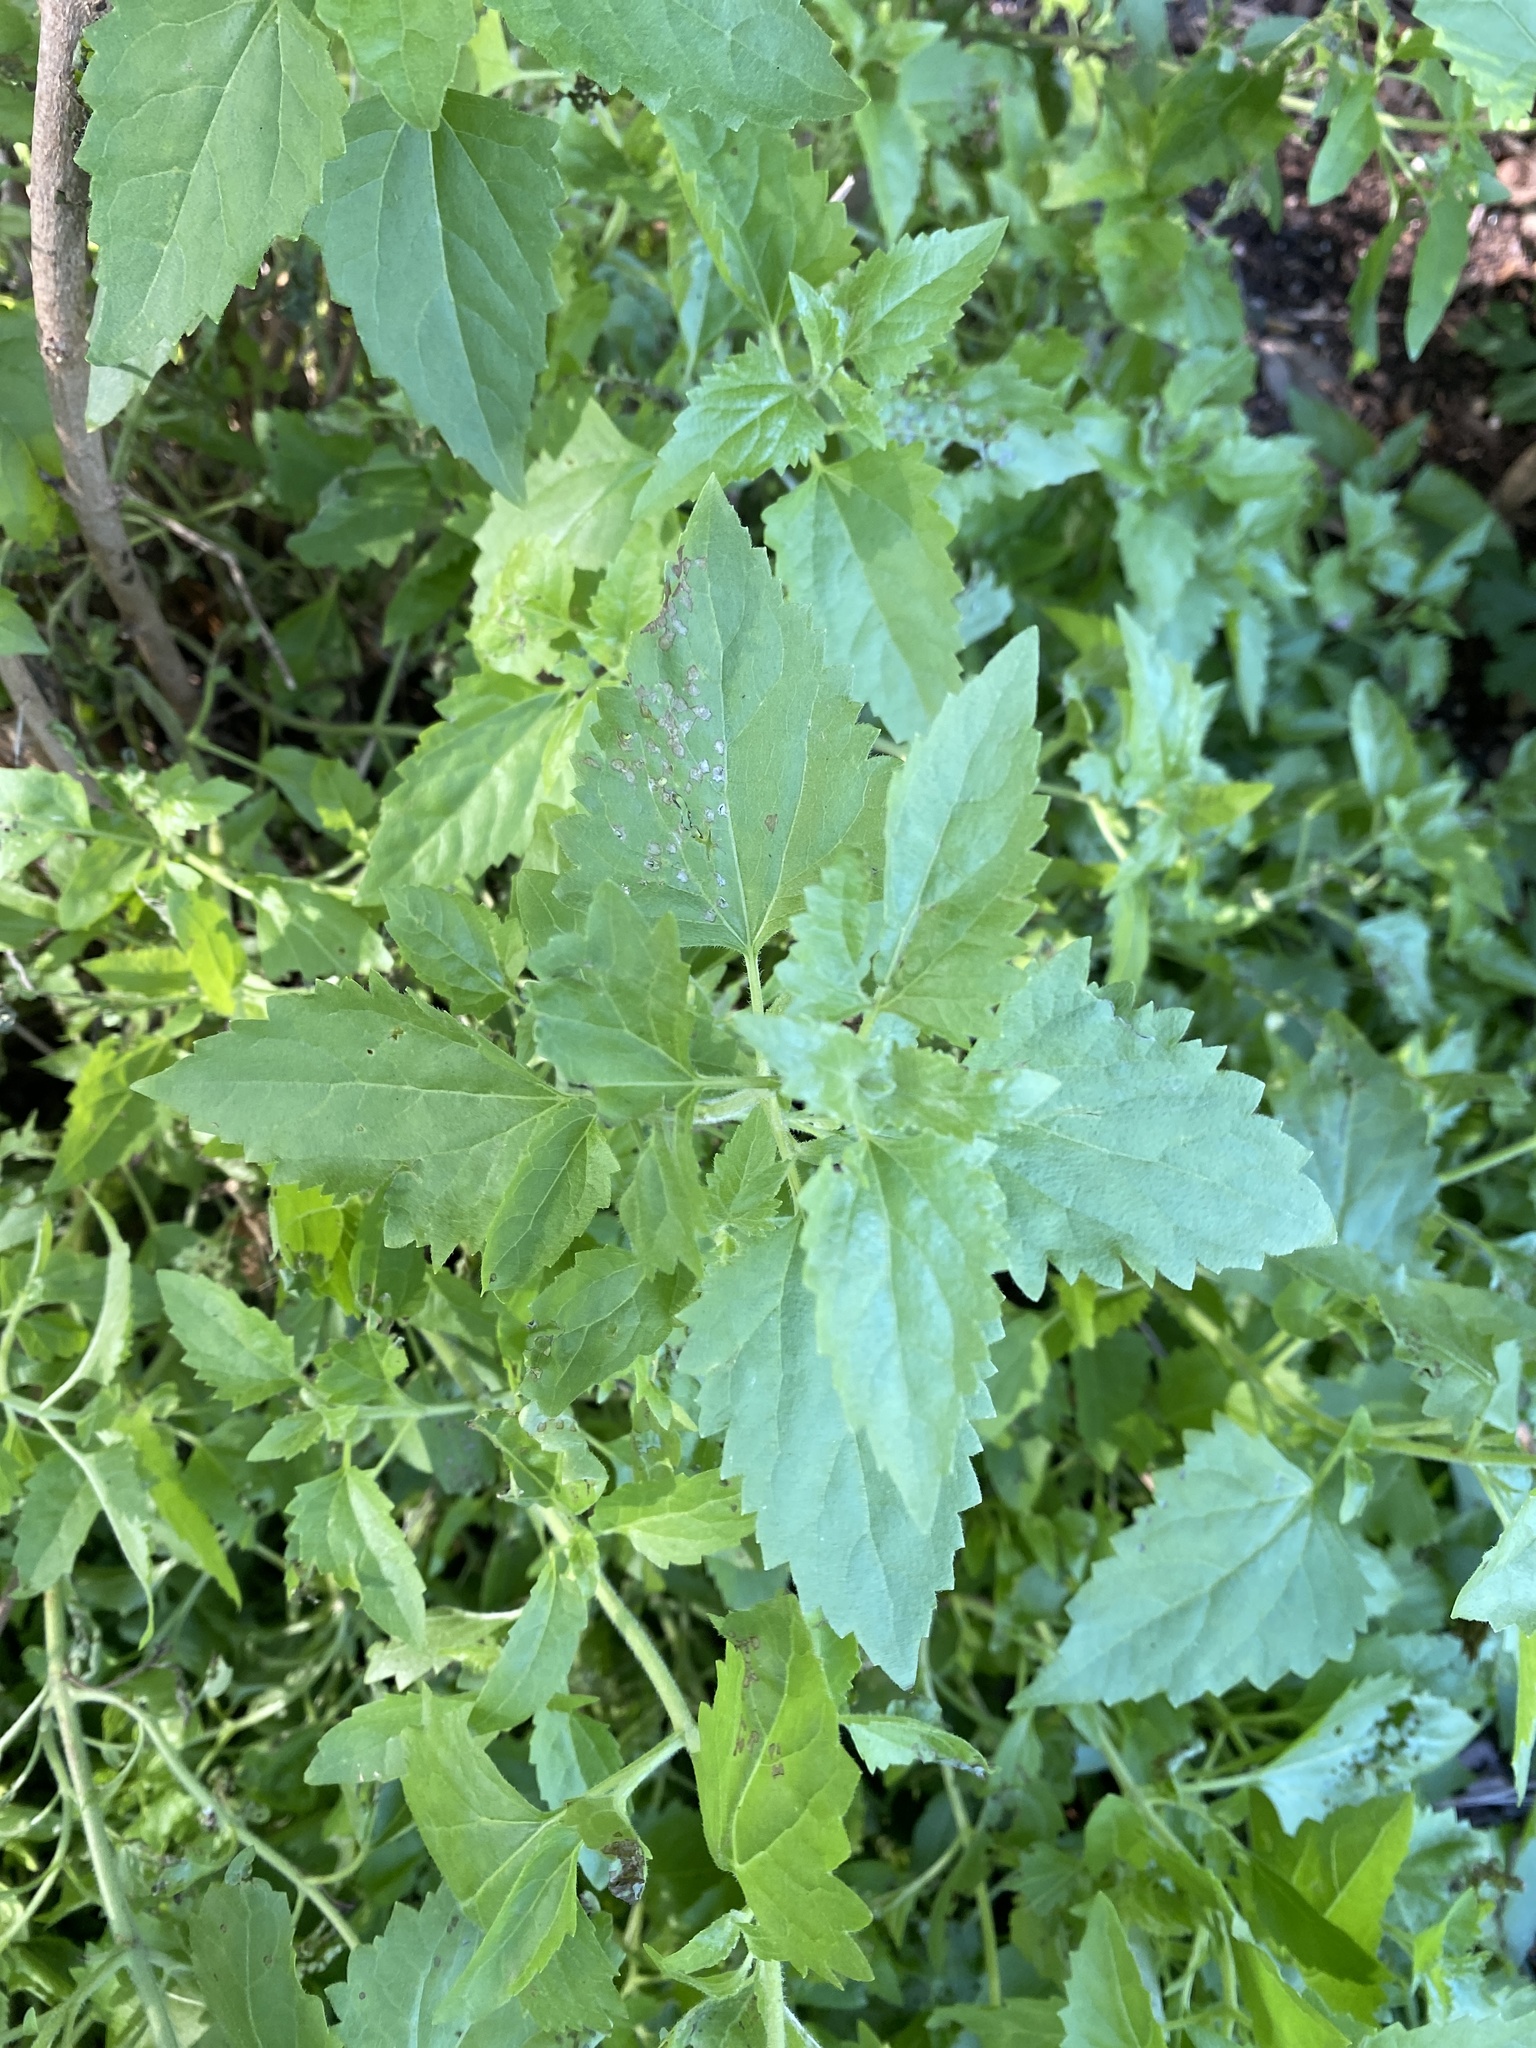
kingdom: Plantae
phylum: Tracheophyta
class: Magnoliopsida
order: Asterales
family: Asteraceae
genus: Ageratina
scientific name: Ageratina havanensis
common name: Havana snakeroot
